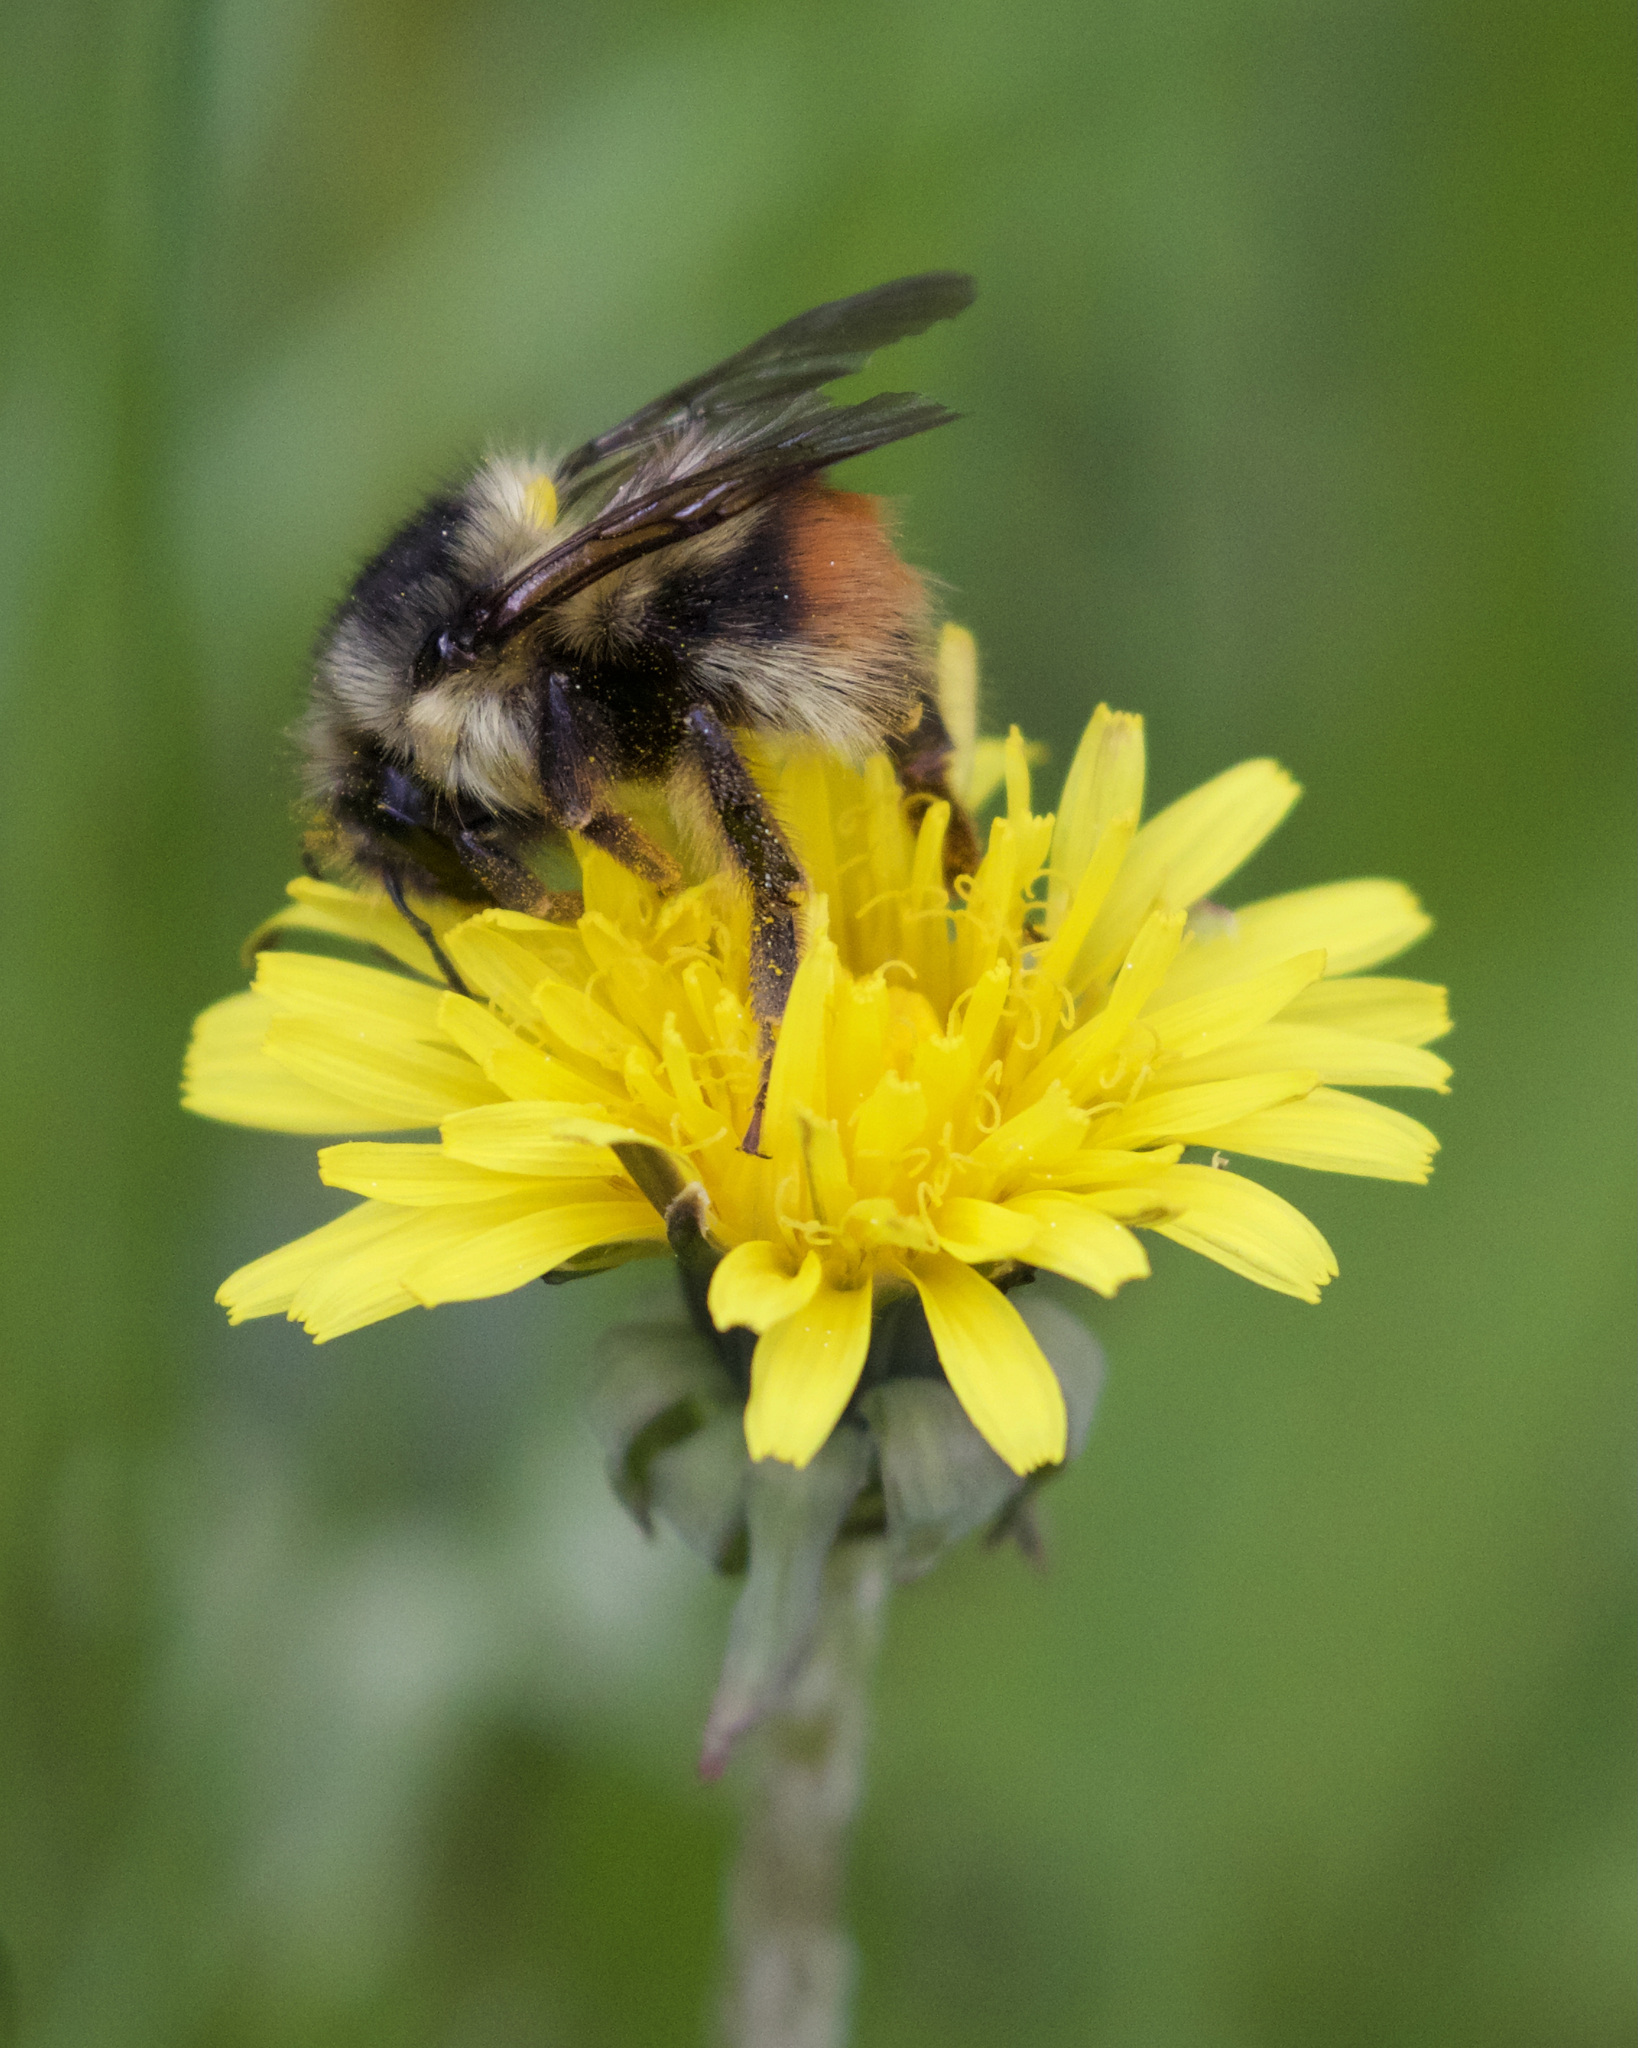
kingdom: Animalia
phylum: Arthropoda
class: Insecta
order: Hymenoptera
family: Apidae
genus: Bombus
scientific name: Bombus mixtus
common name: Fuzzy-horned bumble bee
